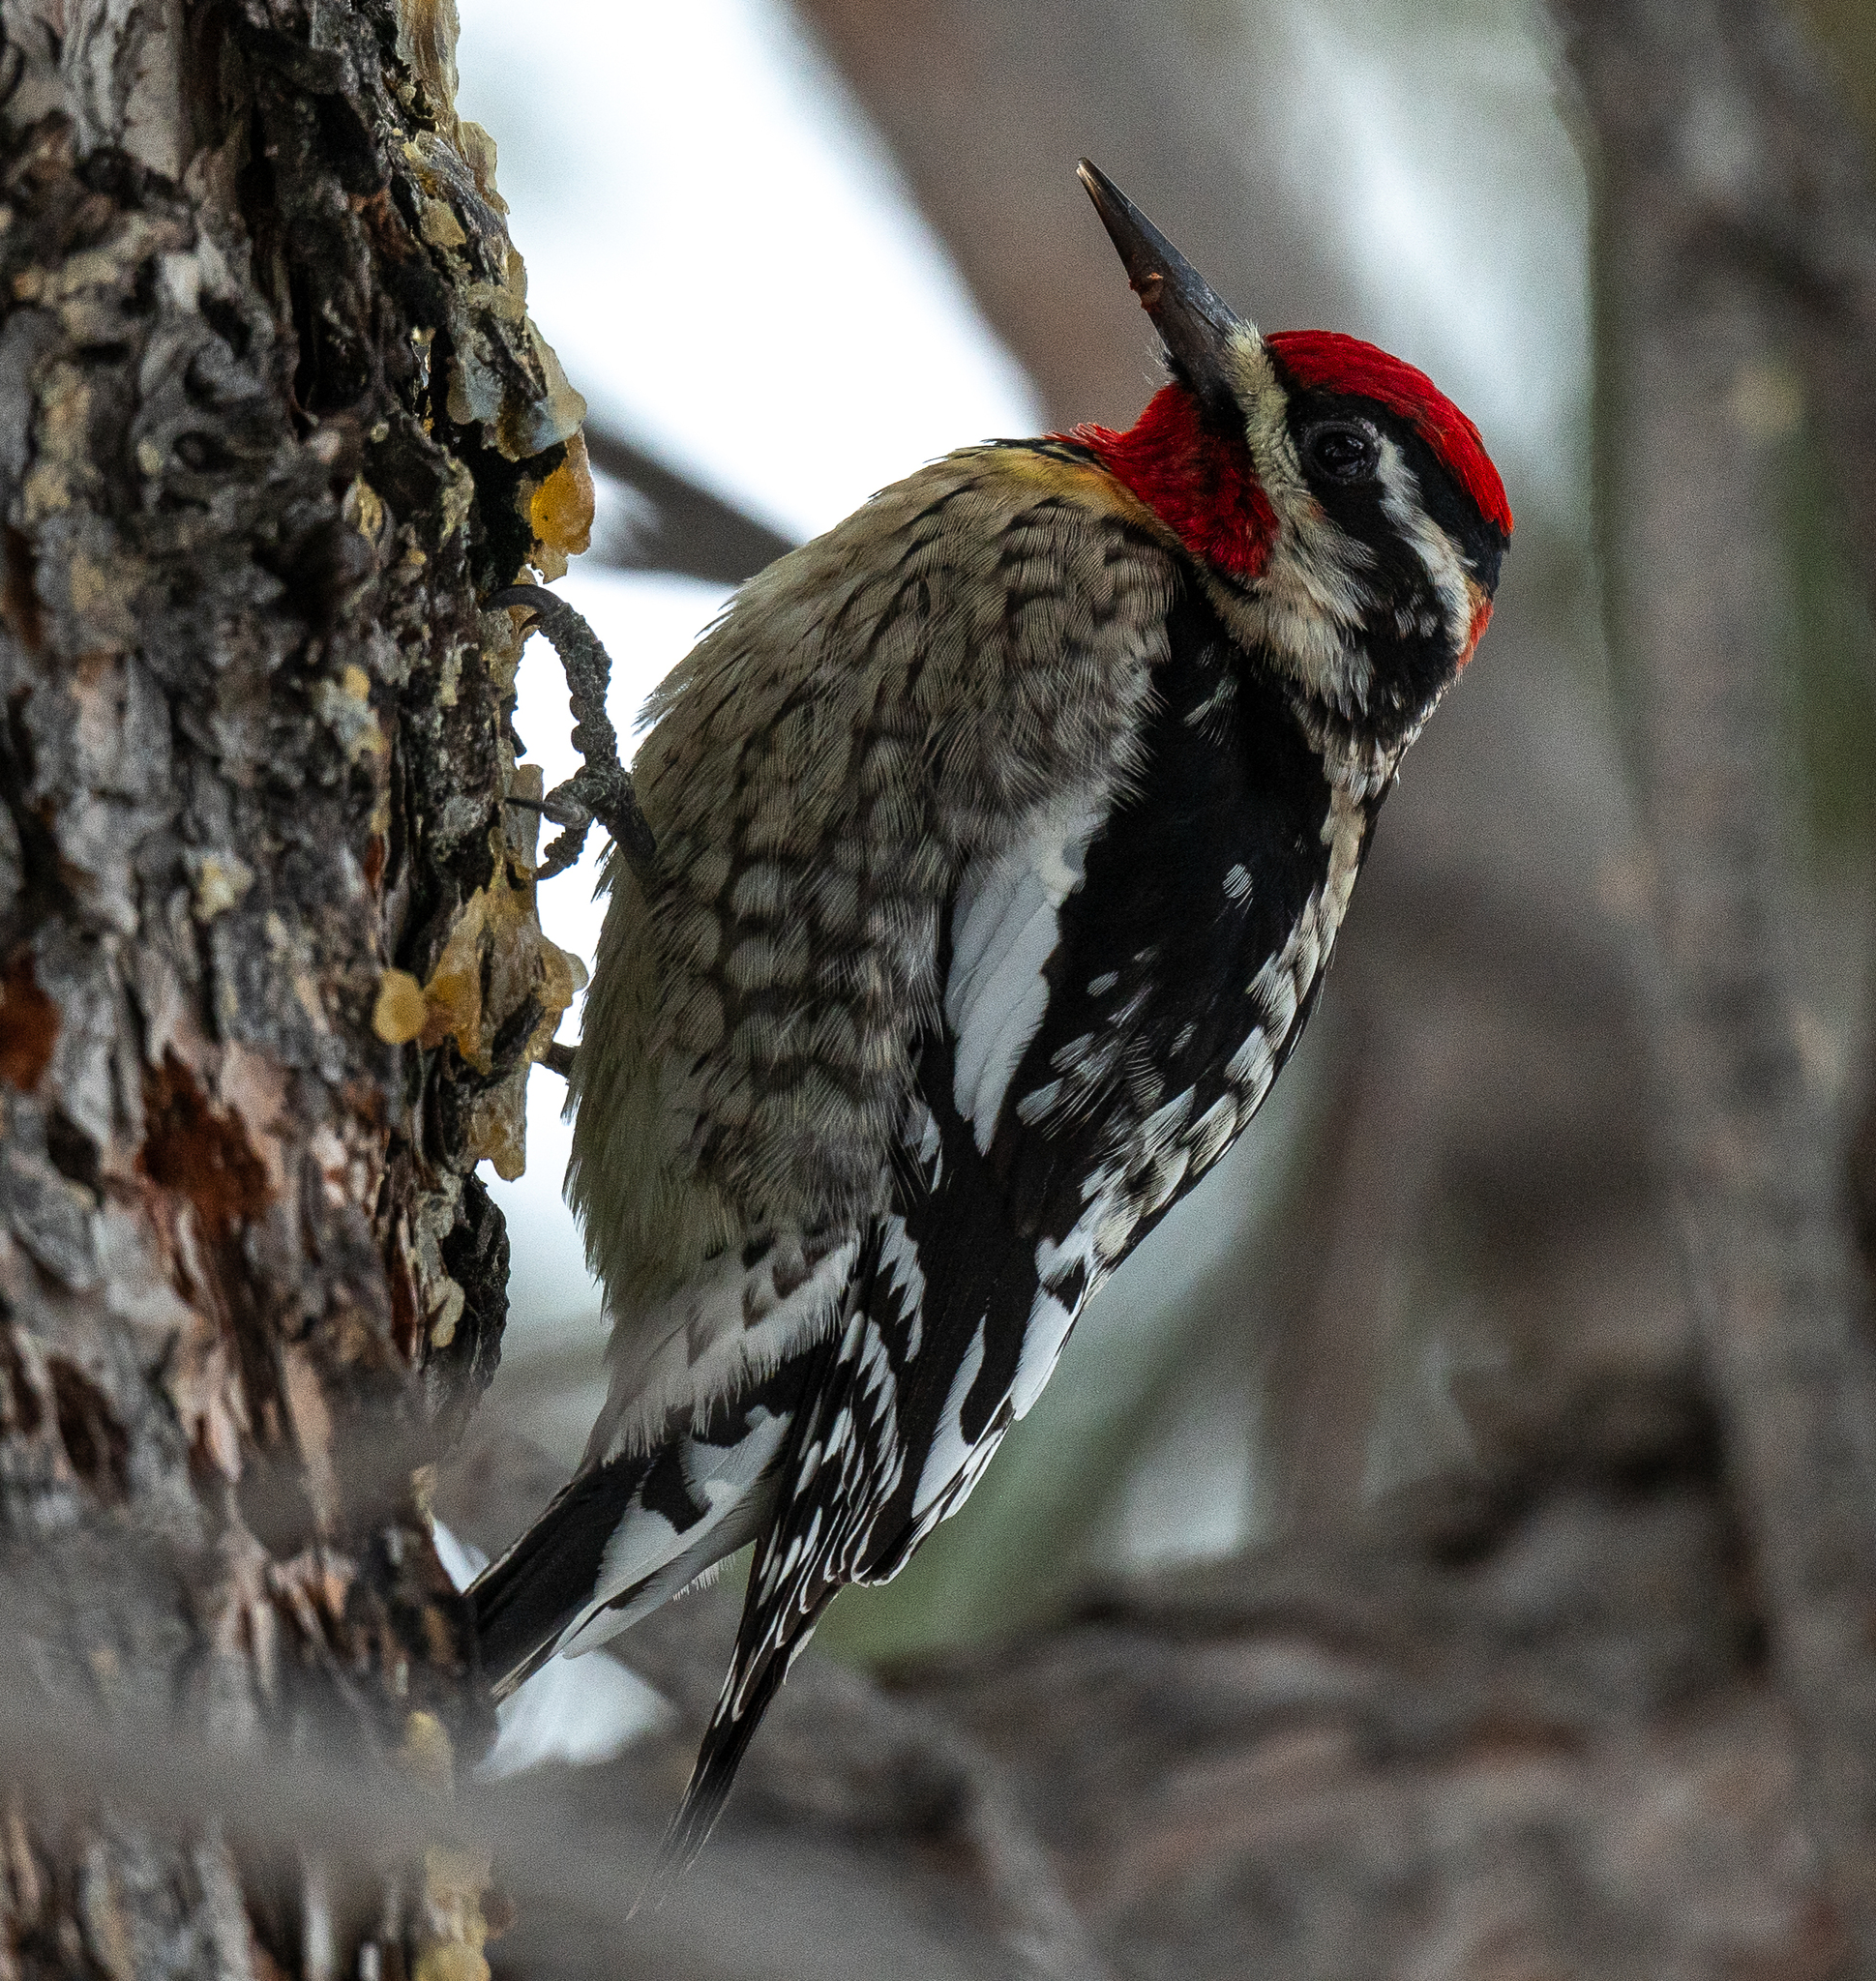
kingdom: Animalia
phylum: Chordata
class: Aves
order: Piciformes
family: Picidae
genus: Sphyrapicus
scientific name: Sphyrapicus nuchalis
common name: Red-naped sapsucker
